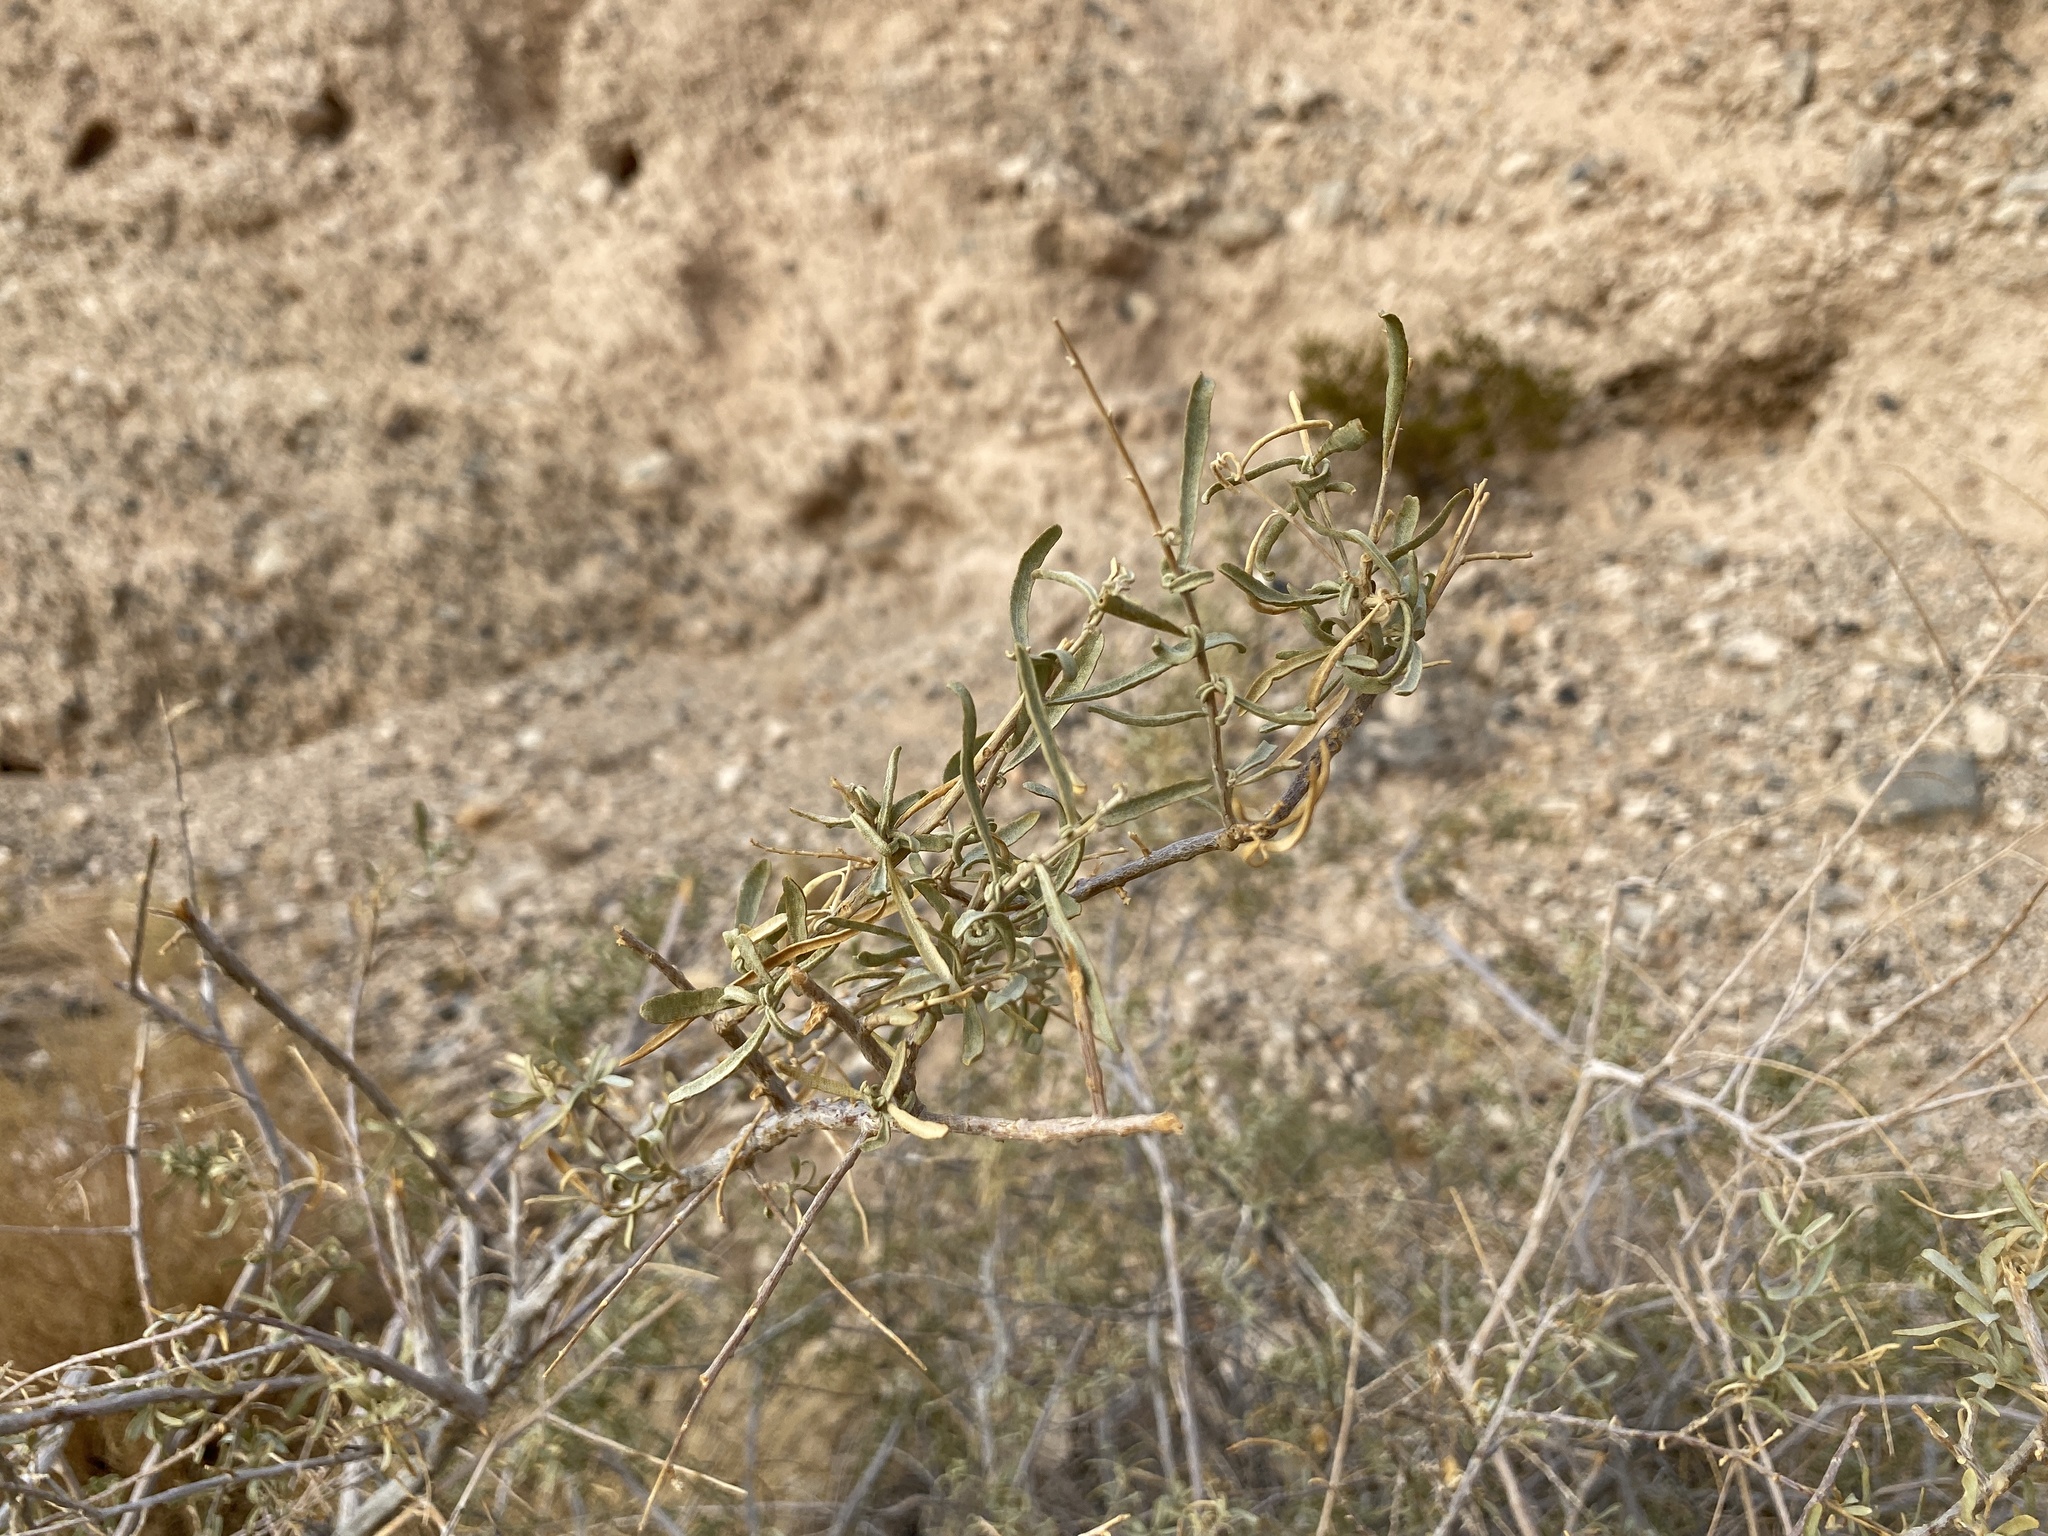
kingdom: Plantae
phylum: Tracheophyta
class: Magnoliopsida
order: Caryophyllales
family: Amaranthaceae
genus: Atriplex
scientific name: Atriplex canescens
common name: Four-wing saltbush
